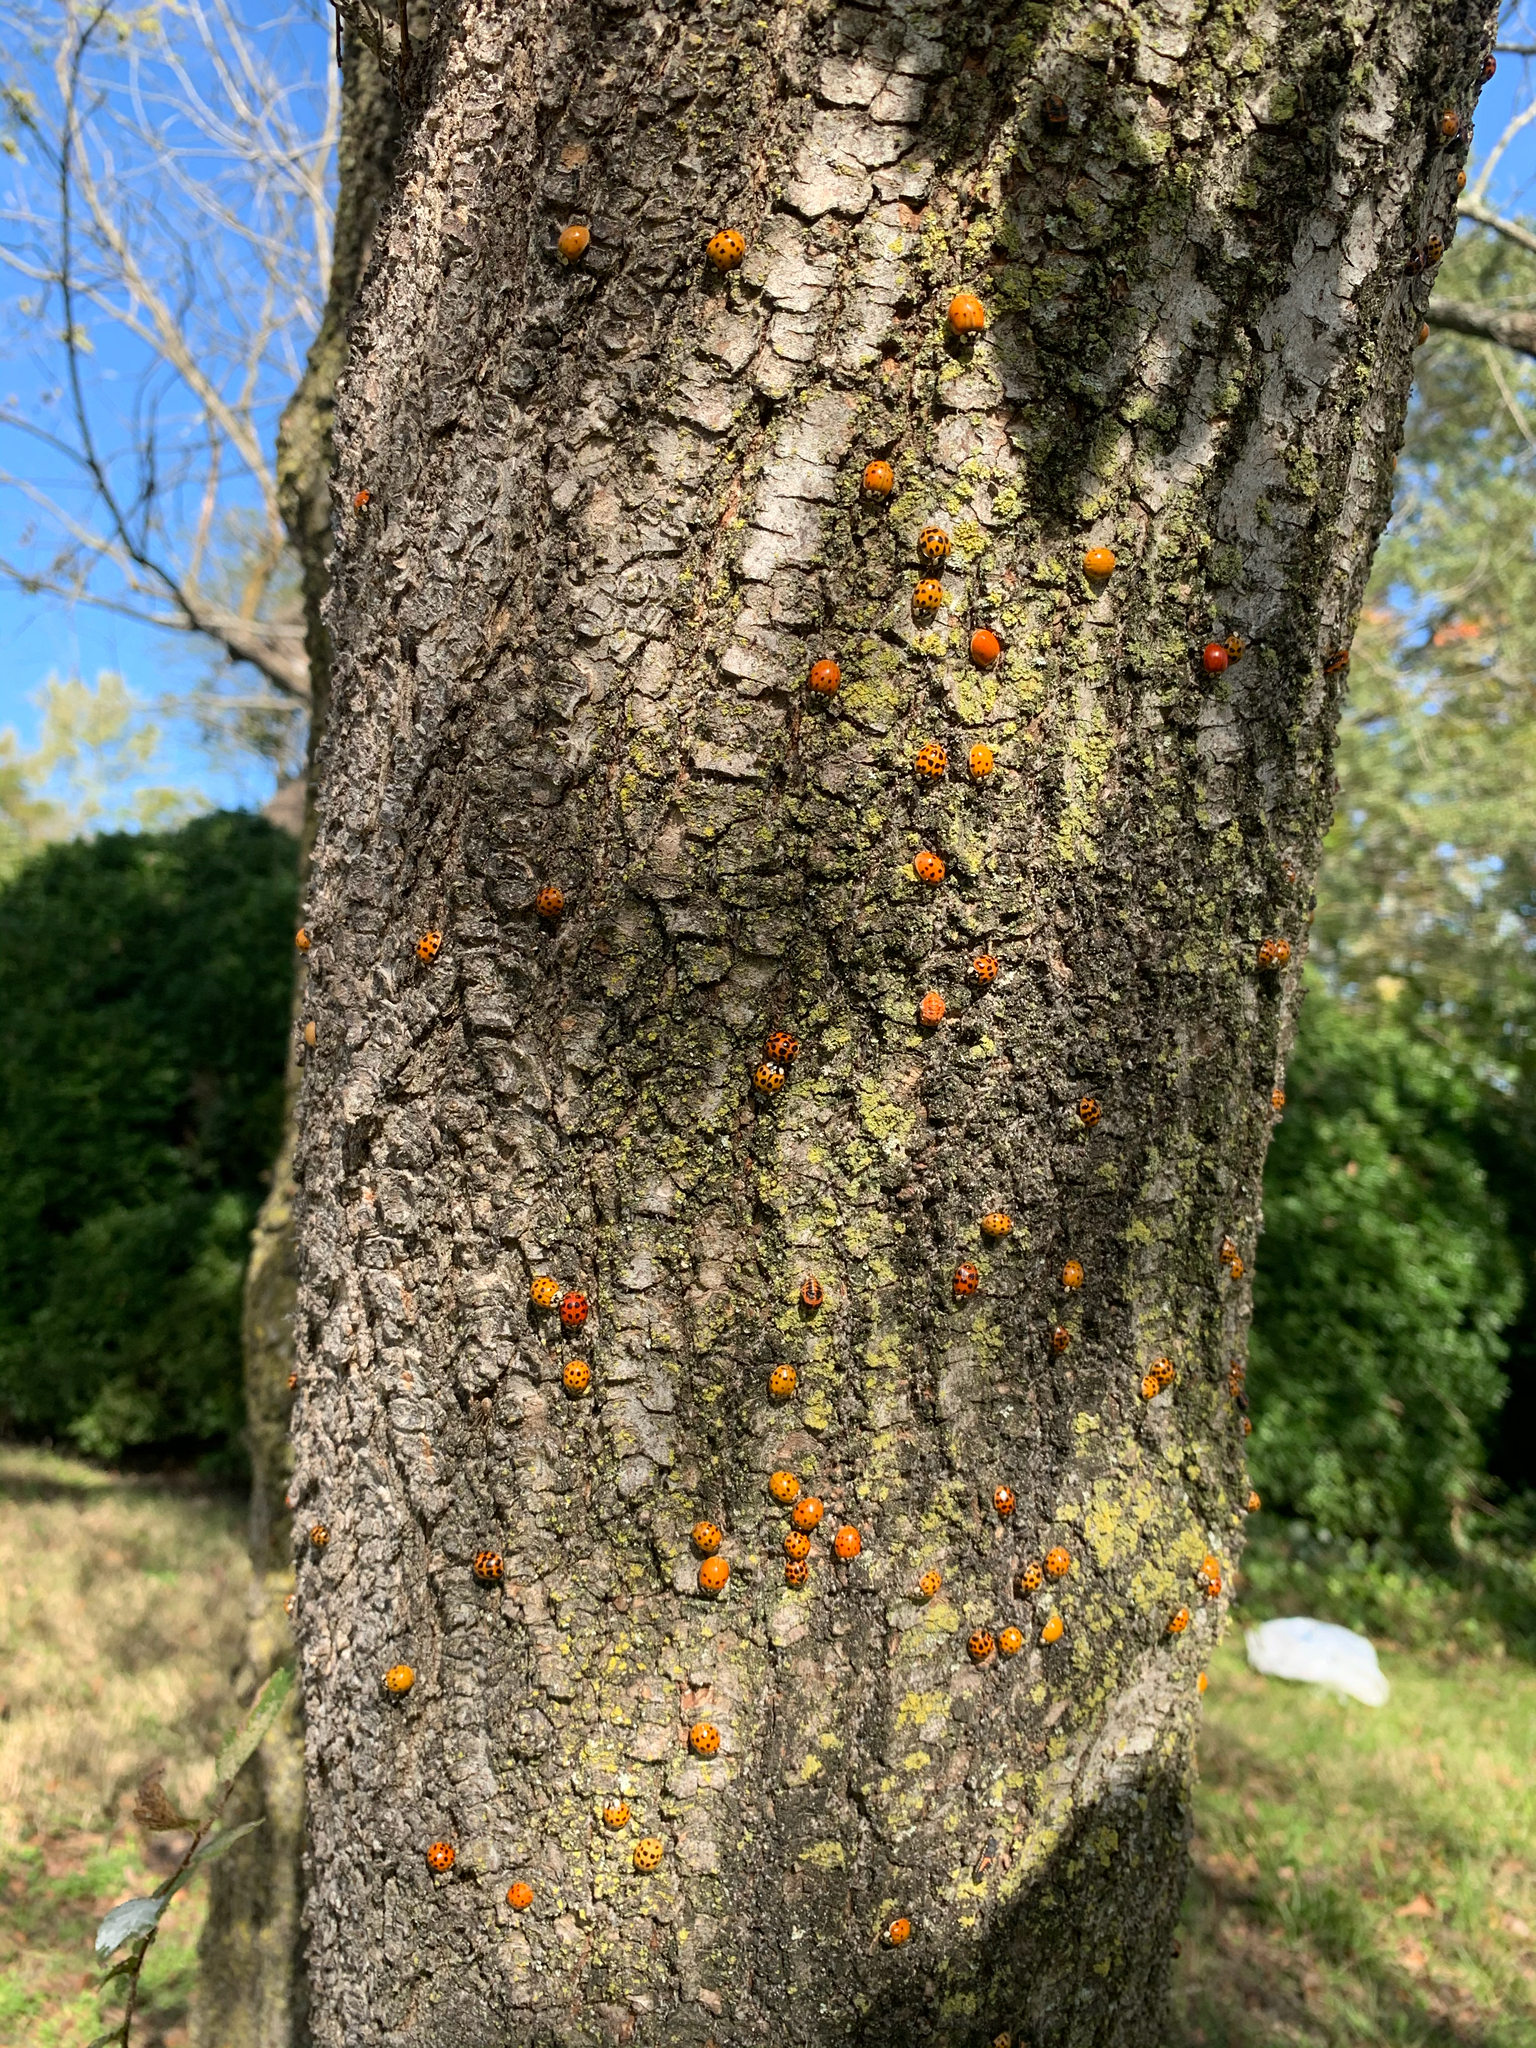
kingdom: Animalia
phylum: Arthropoda
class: Insecta
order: Coleoptera
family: Coccinellidae
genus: Harmonia
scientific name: Harmonia axyridis
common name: Harlequin ladybird
